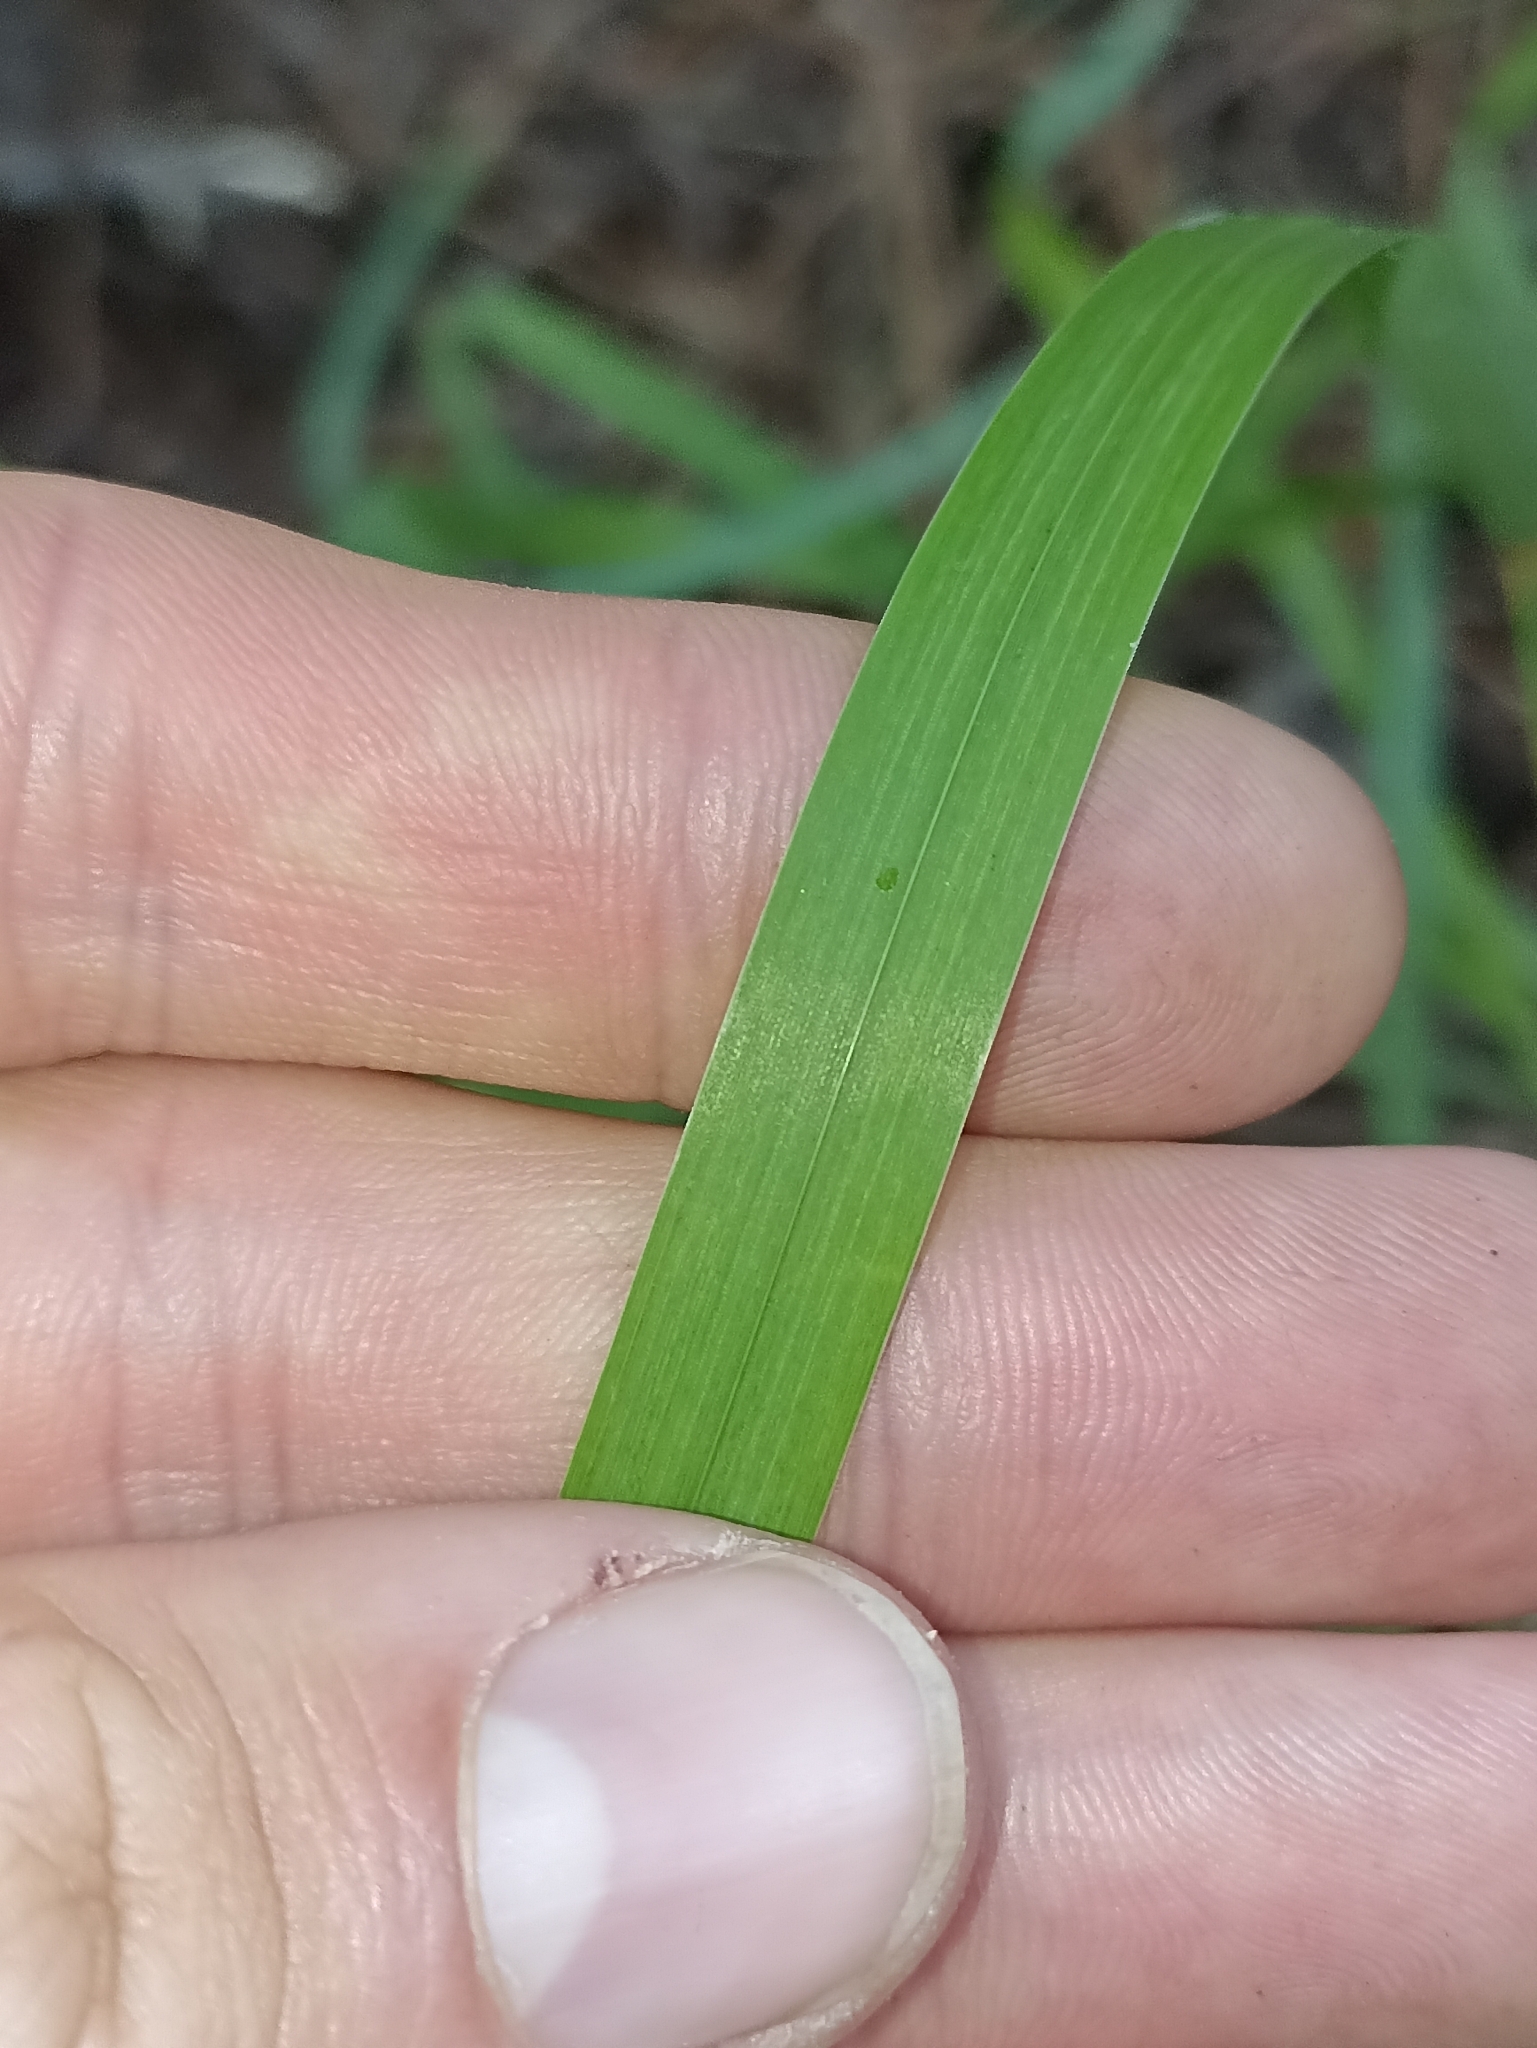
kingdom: Plantae
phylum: Tracheophyta
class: Liliopsida
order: Poales
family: Poaceae
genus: Dactylis
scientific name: Dactylis glomerata
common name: Orchardgrass
